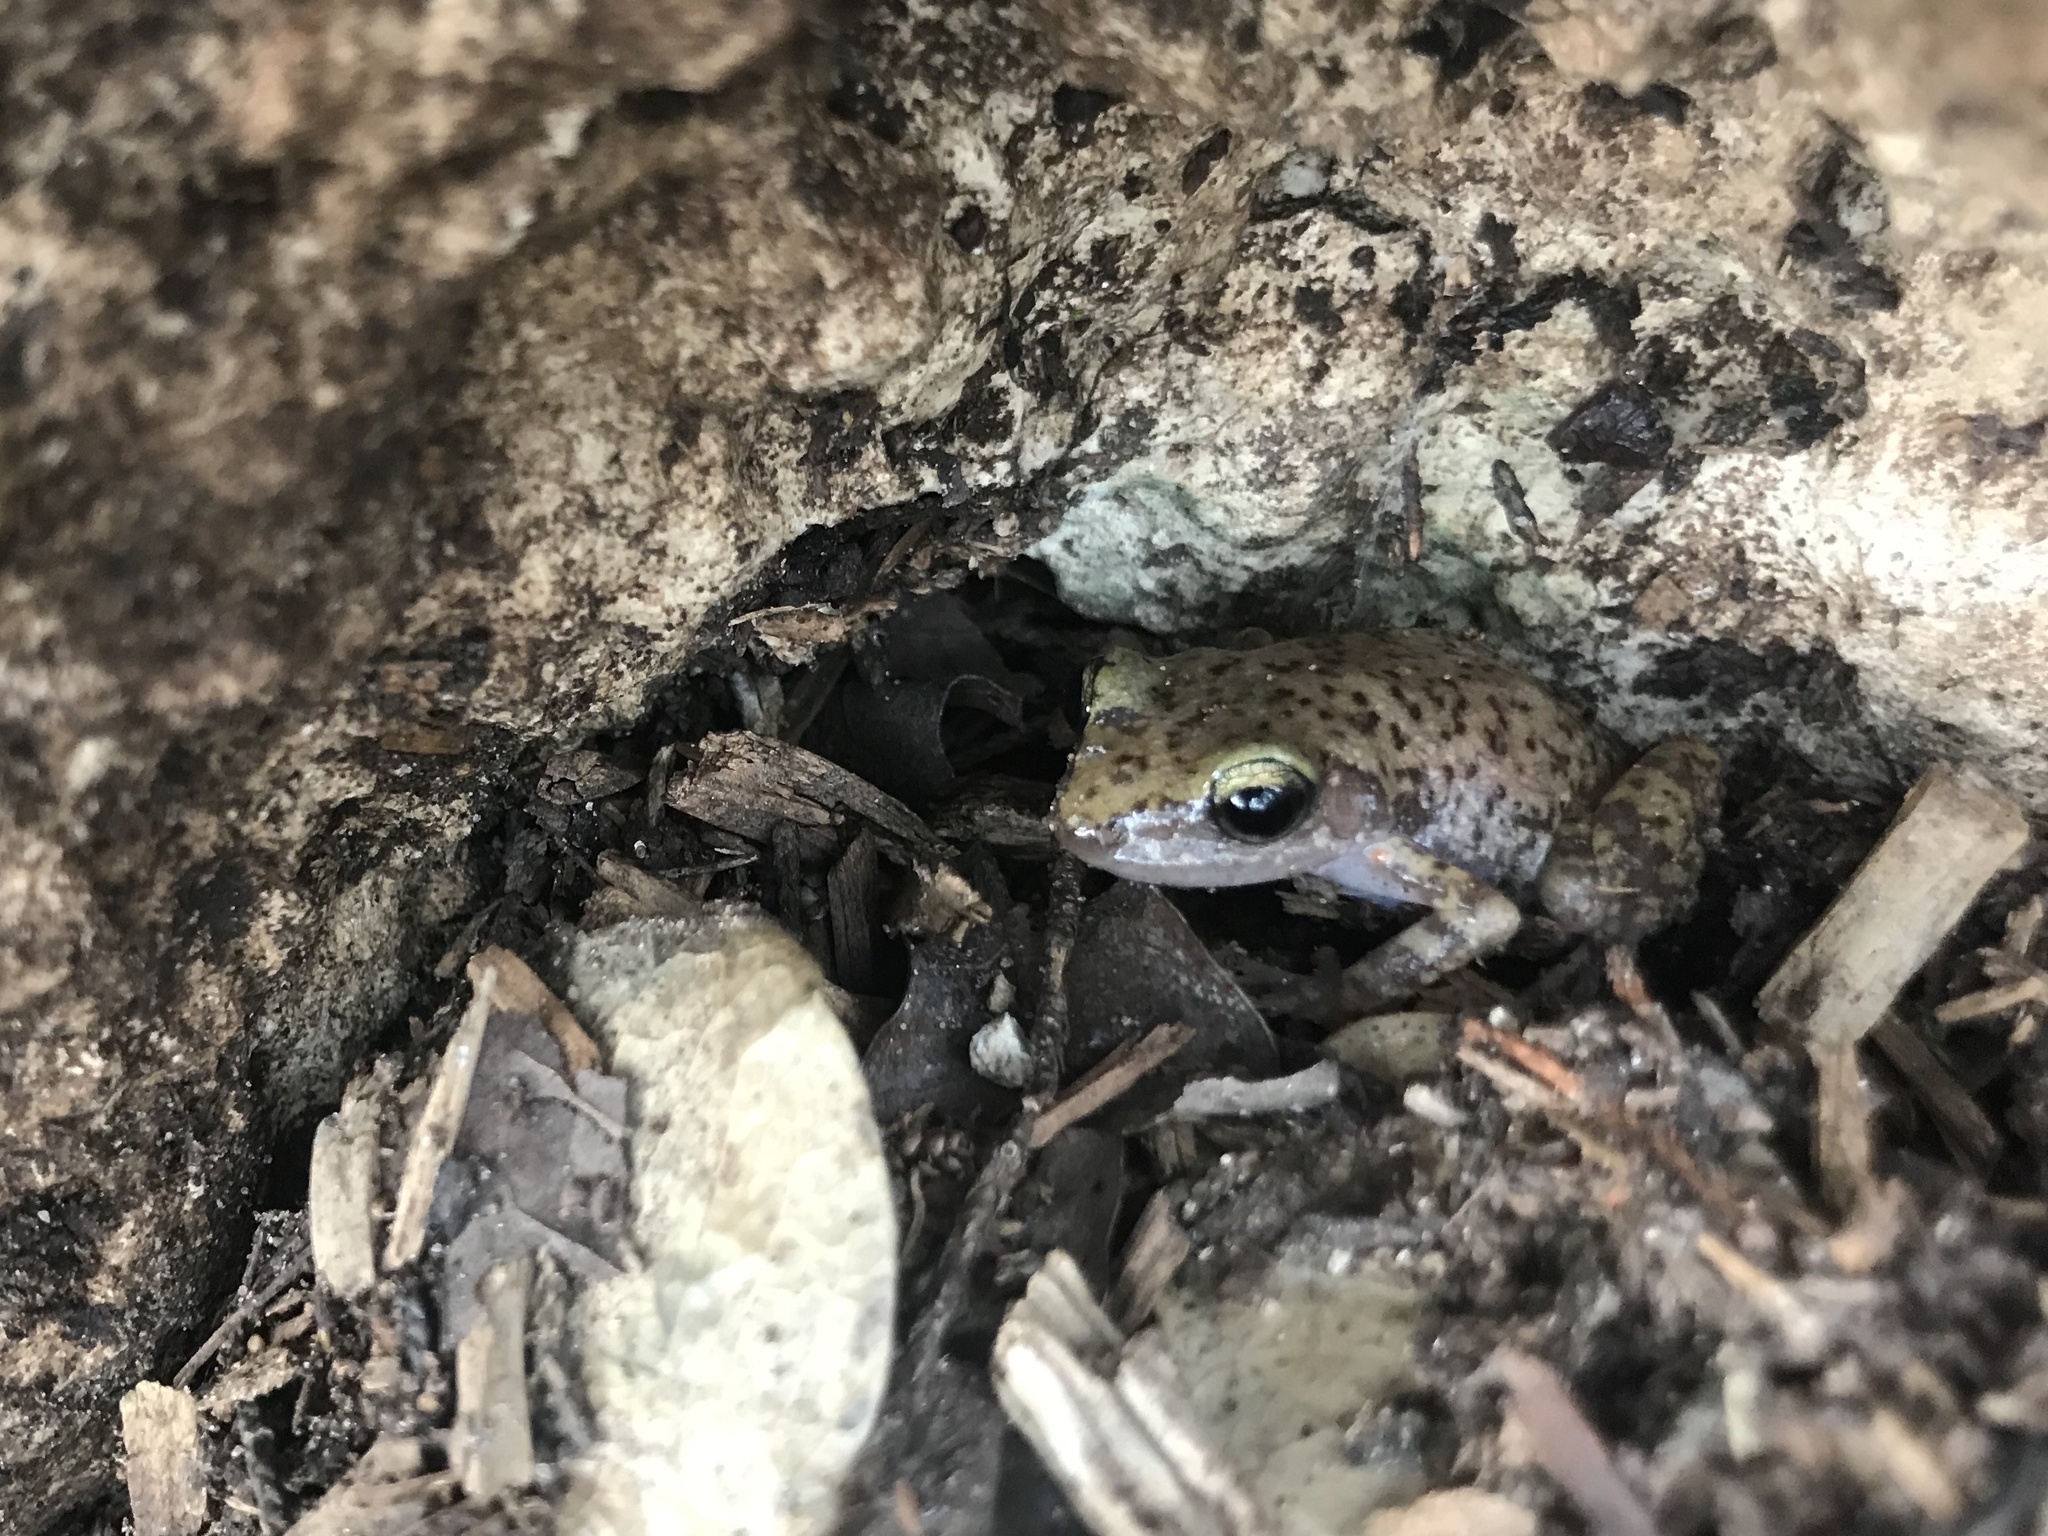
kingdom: Animalia
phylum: Chordata
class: Amphibia
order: Anura
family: Eleutherodactylidae
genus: Eleutherodactylus
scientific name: Eleutherodactylus marnockii
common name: Cliff chirping frog
